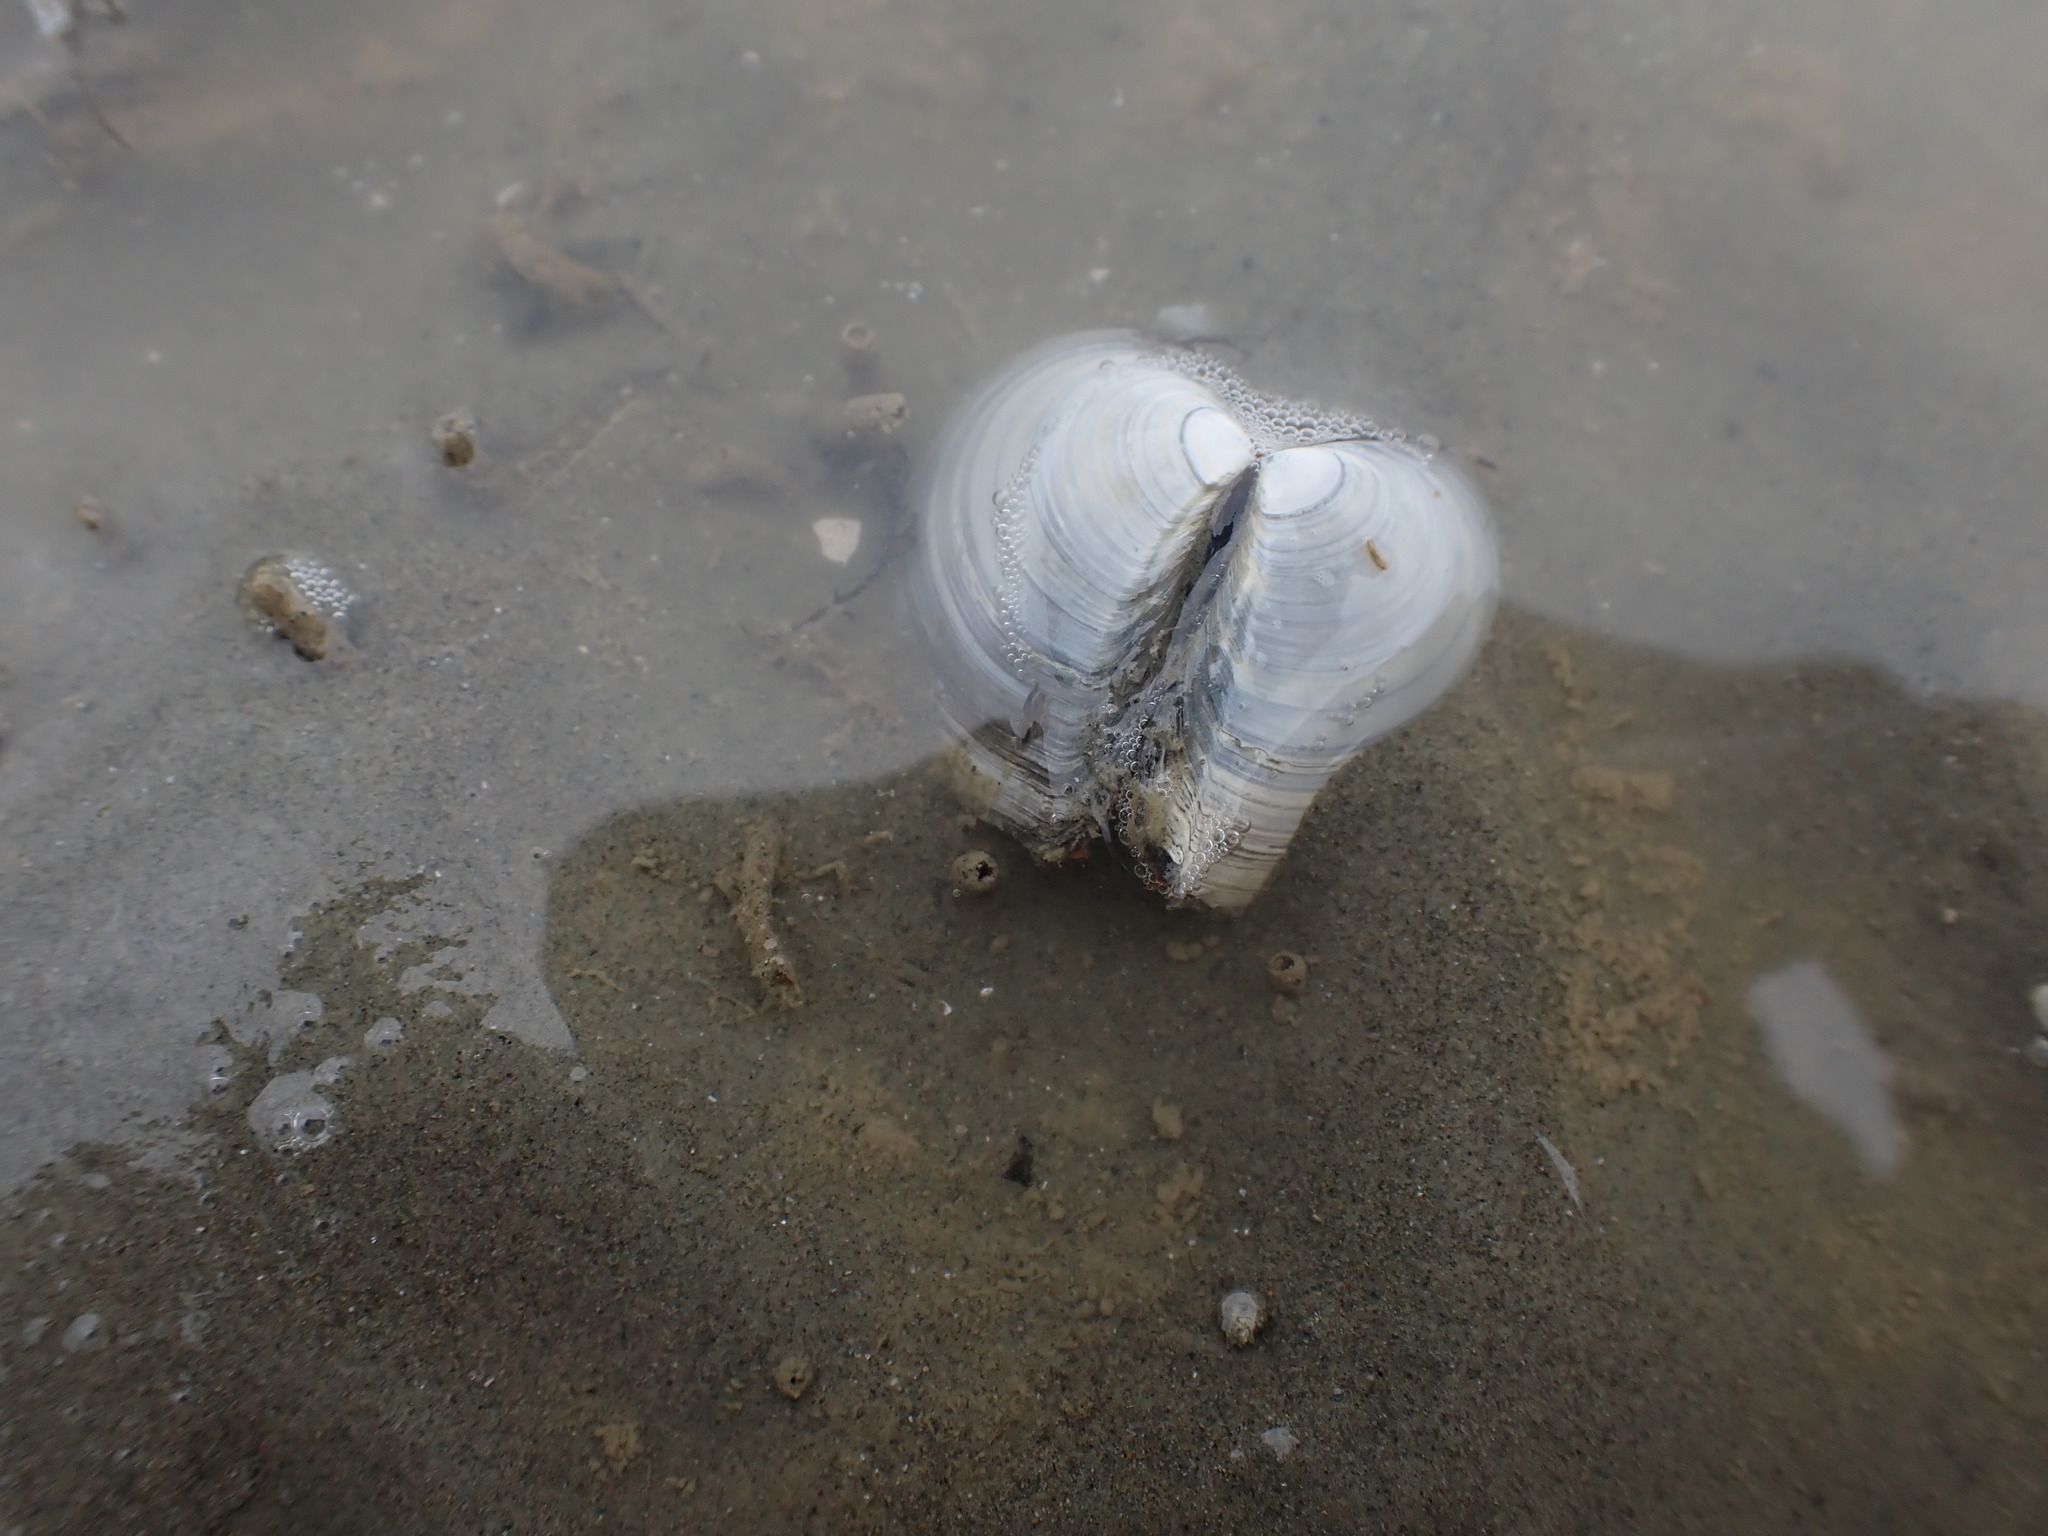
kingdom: Animalia
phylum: Mollusca
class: Bivalvia
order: Cardiida
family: Tellinidae
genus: Macomona
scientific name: Macomona liliana
